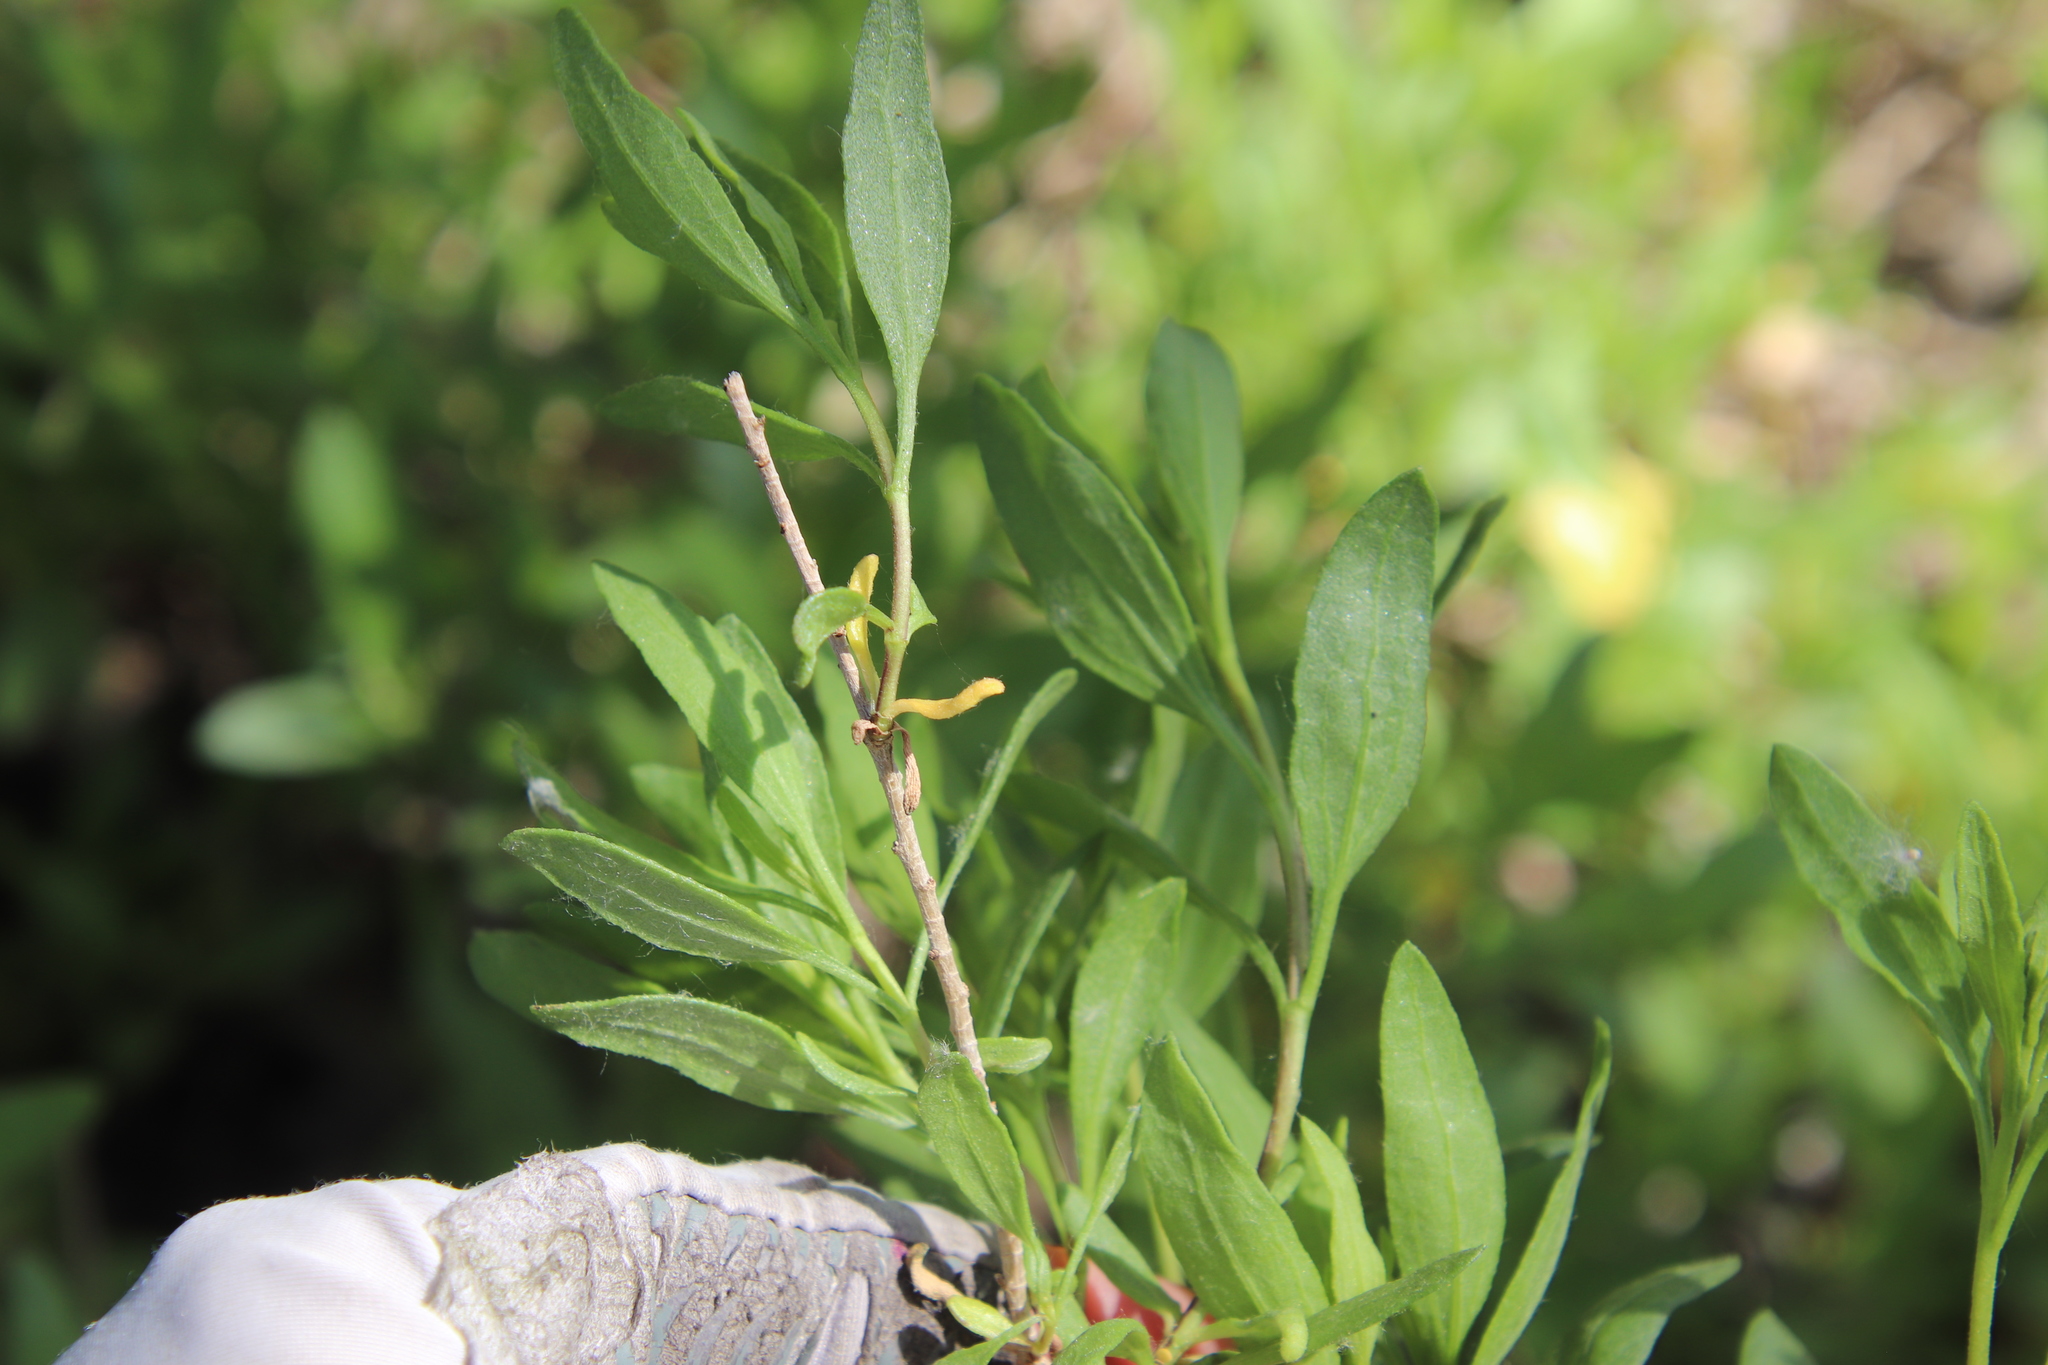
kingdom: Plantae
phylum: Tracheophyta
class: Magnoliopsida
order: Asterales
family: Asteraceae
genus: Iva
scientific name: Iva hayesiana
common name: San diego marsh-elder
